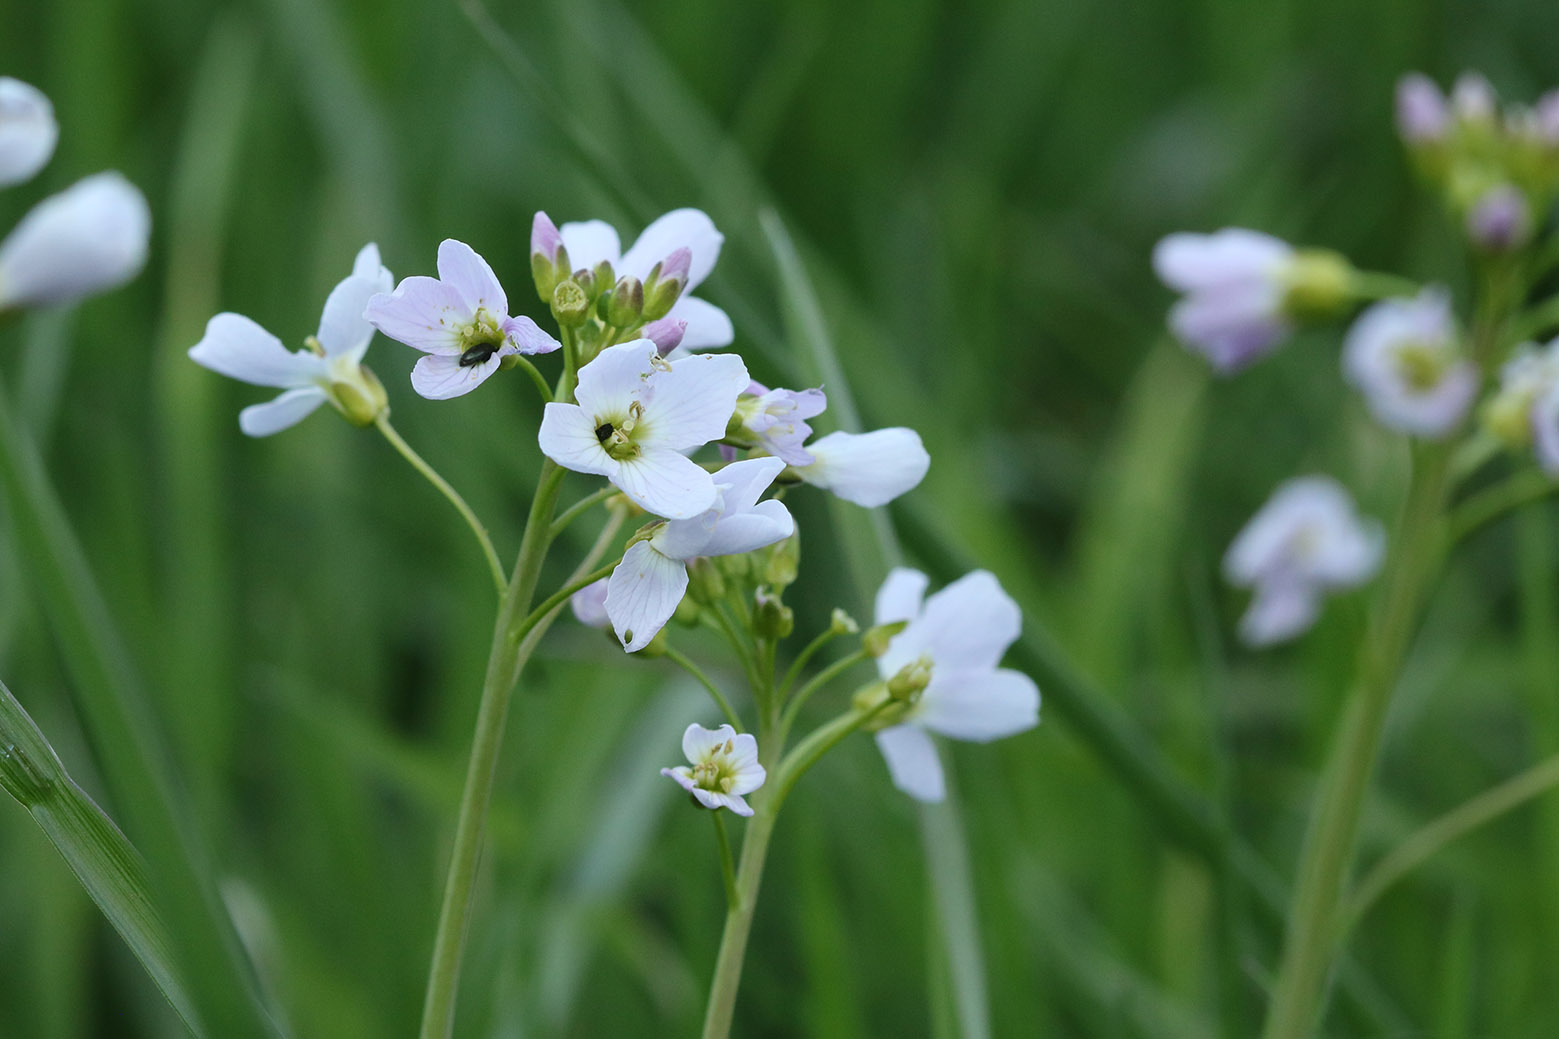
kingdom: Plantae
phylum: Tracheophyta
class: Magnoliopsida
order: Brassicales
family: Brassicaceae
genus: Cardamine
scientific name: Cardamine pratensis
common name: Cuckoo flower
